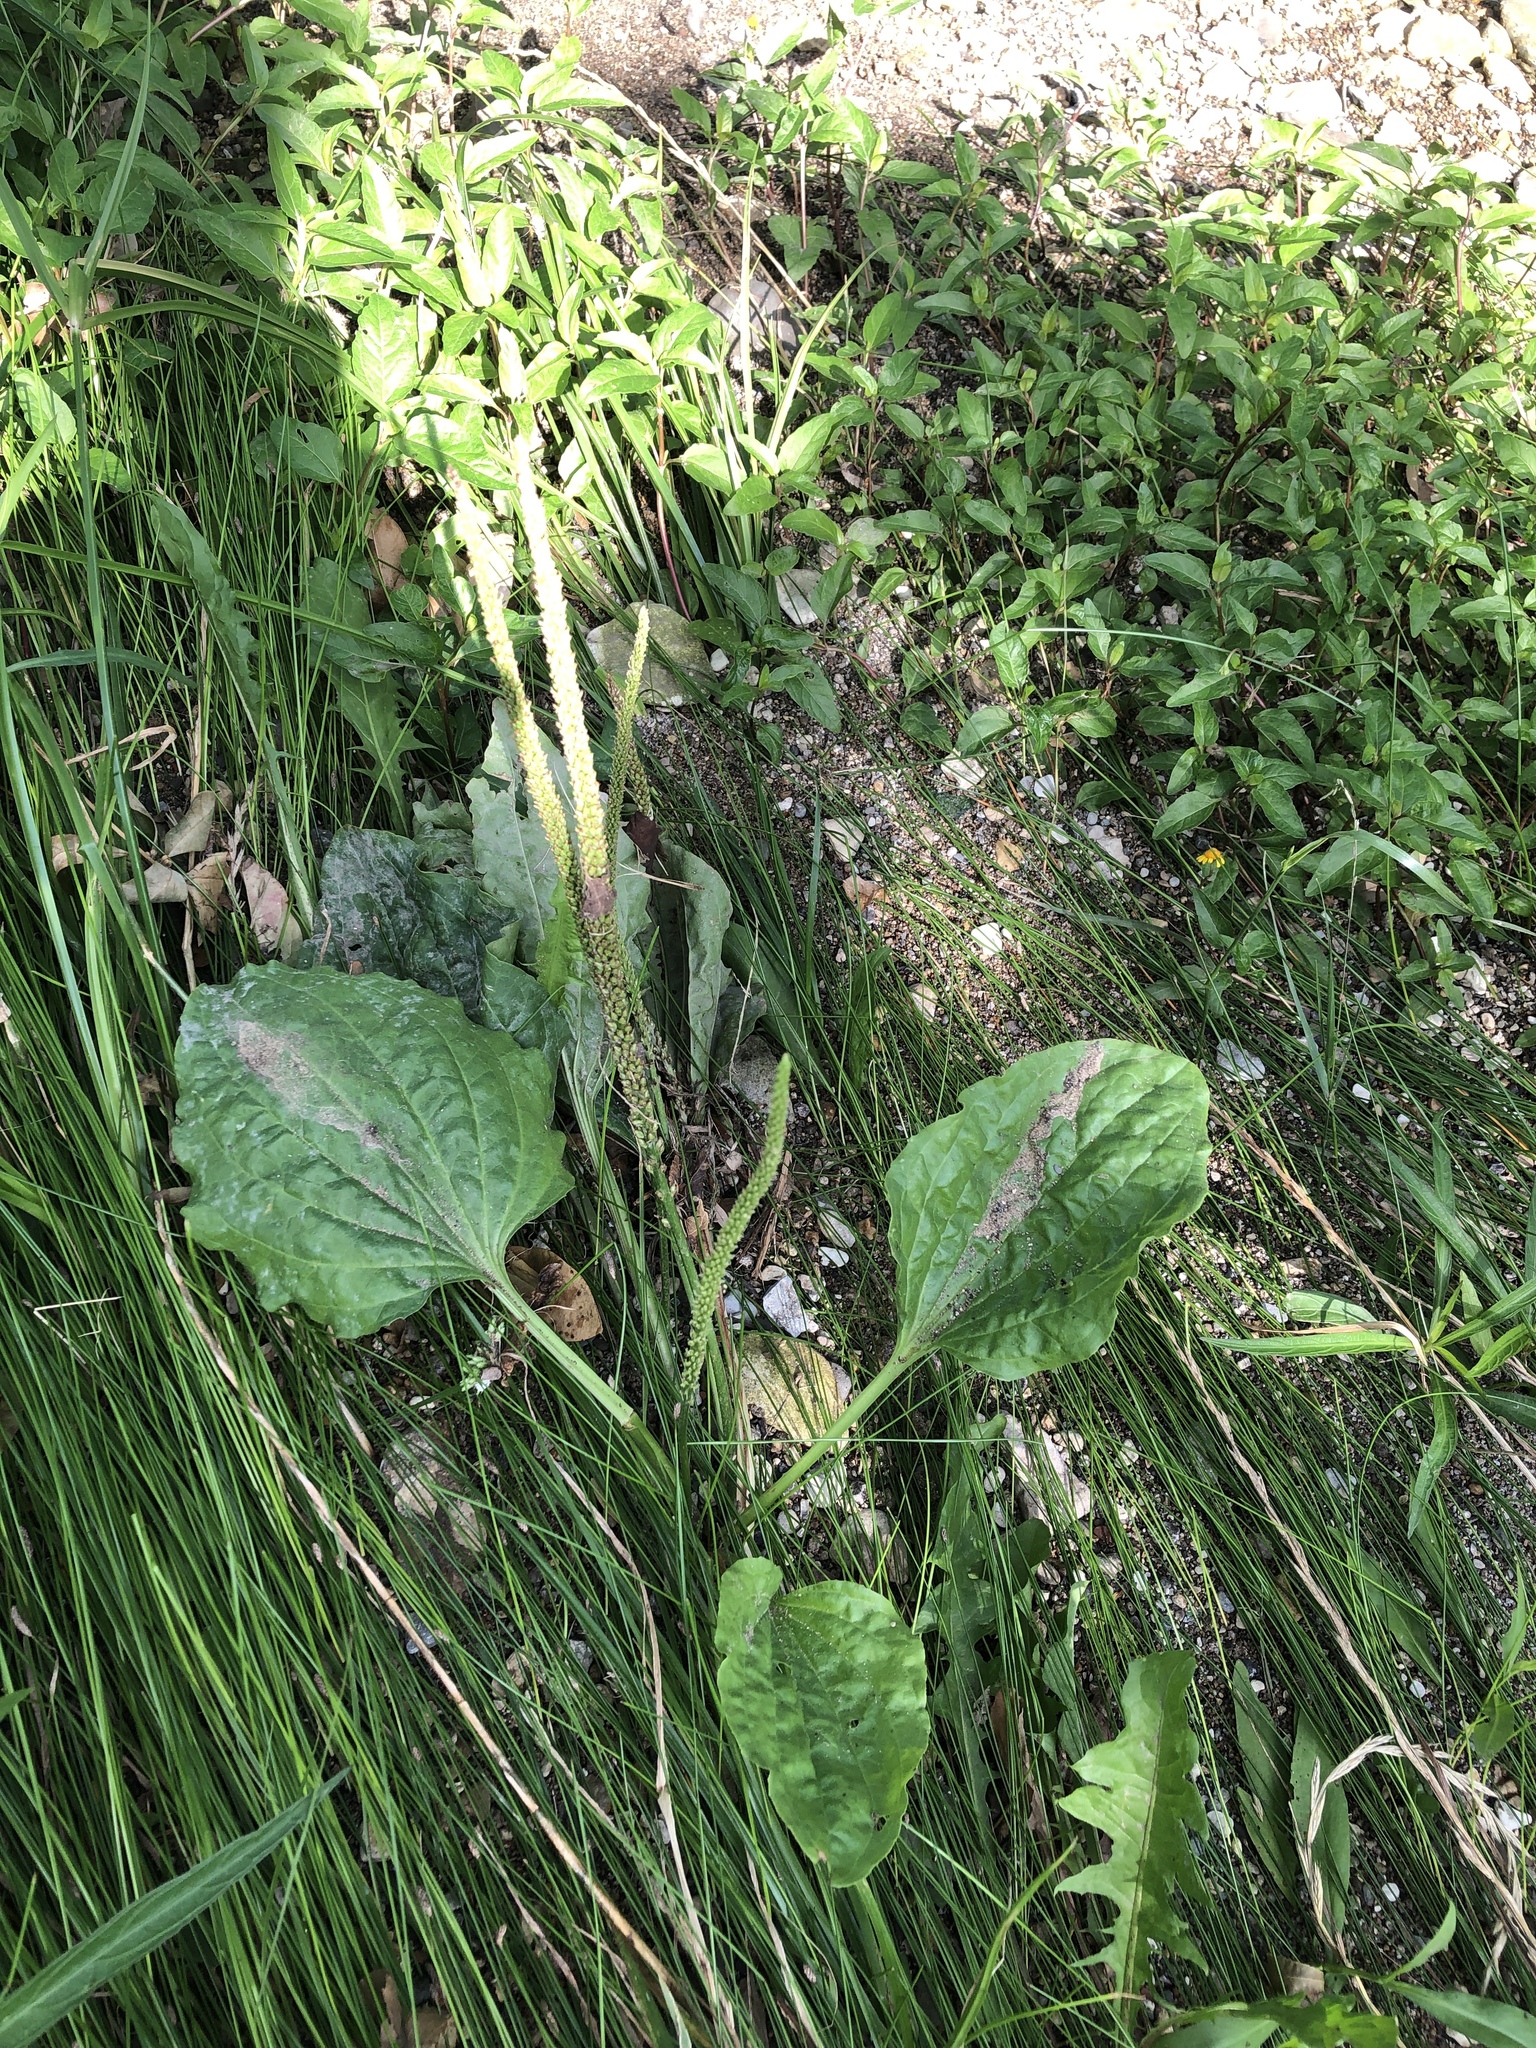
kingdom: Plantae
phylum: Tracheophyta
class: Magnoliopsida
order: Lamiales
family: Plantaginaceae
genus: Plantago
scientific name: Plantago major
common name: Common plantain
